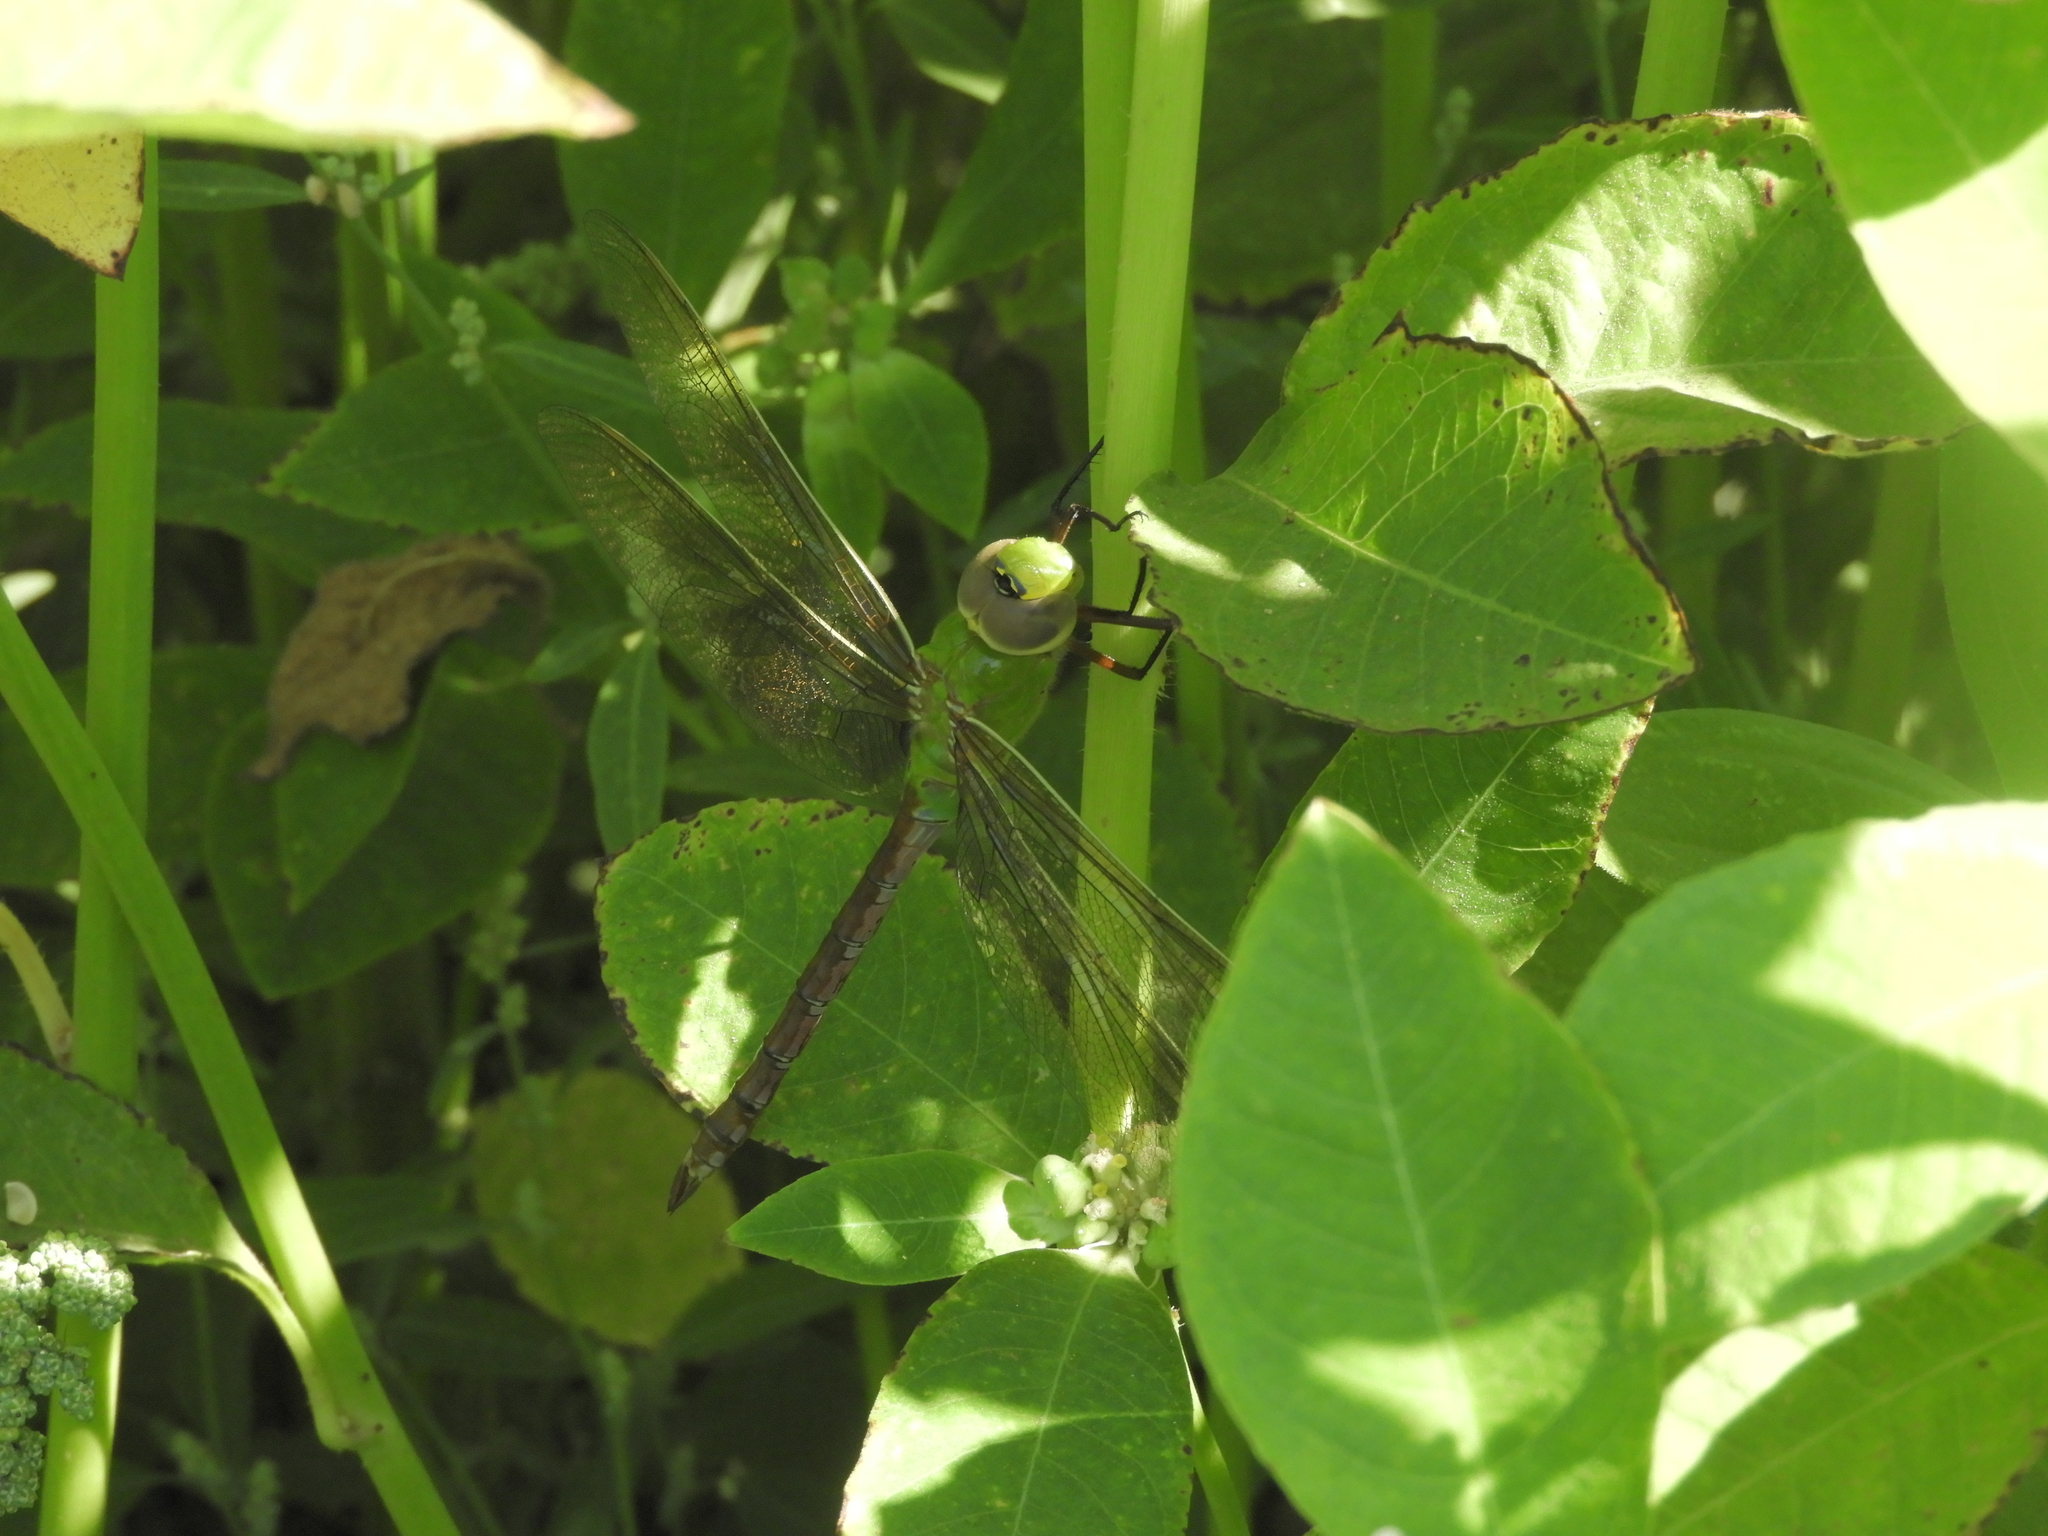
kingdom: Animalia
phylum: Arthropoda
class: Insecta
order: Odonata
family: Aeshnidae
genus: Anax
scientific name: Anax junius
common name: Common green darner
